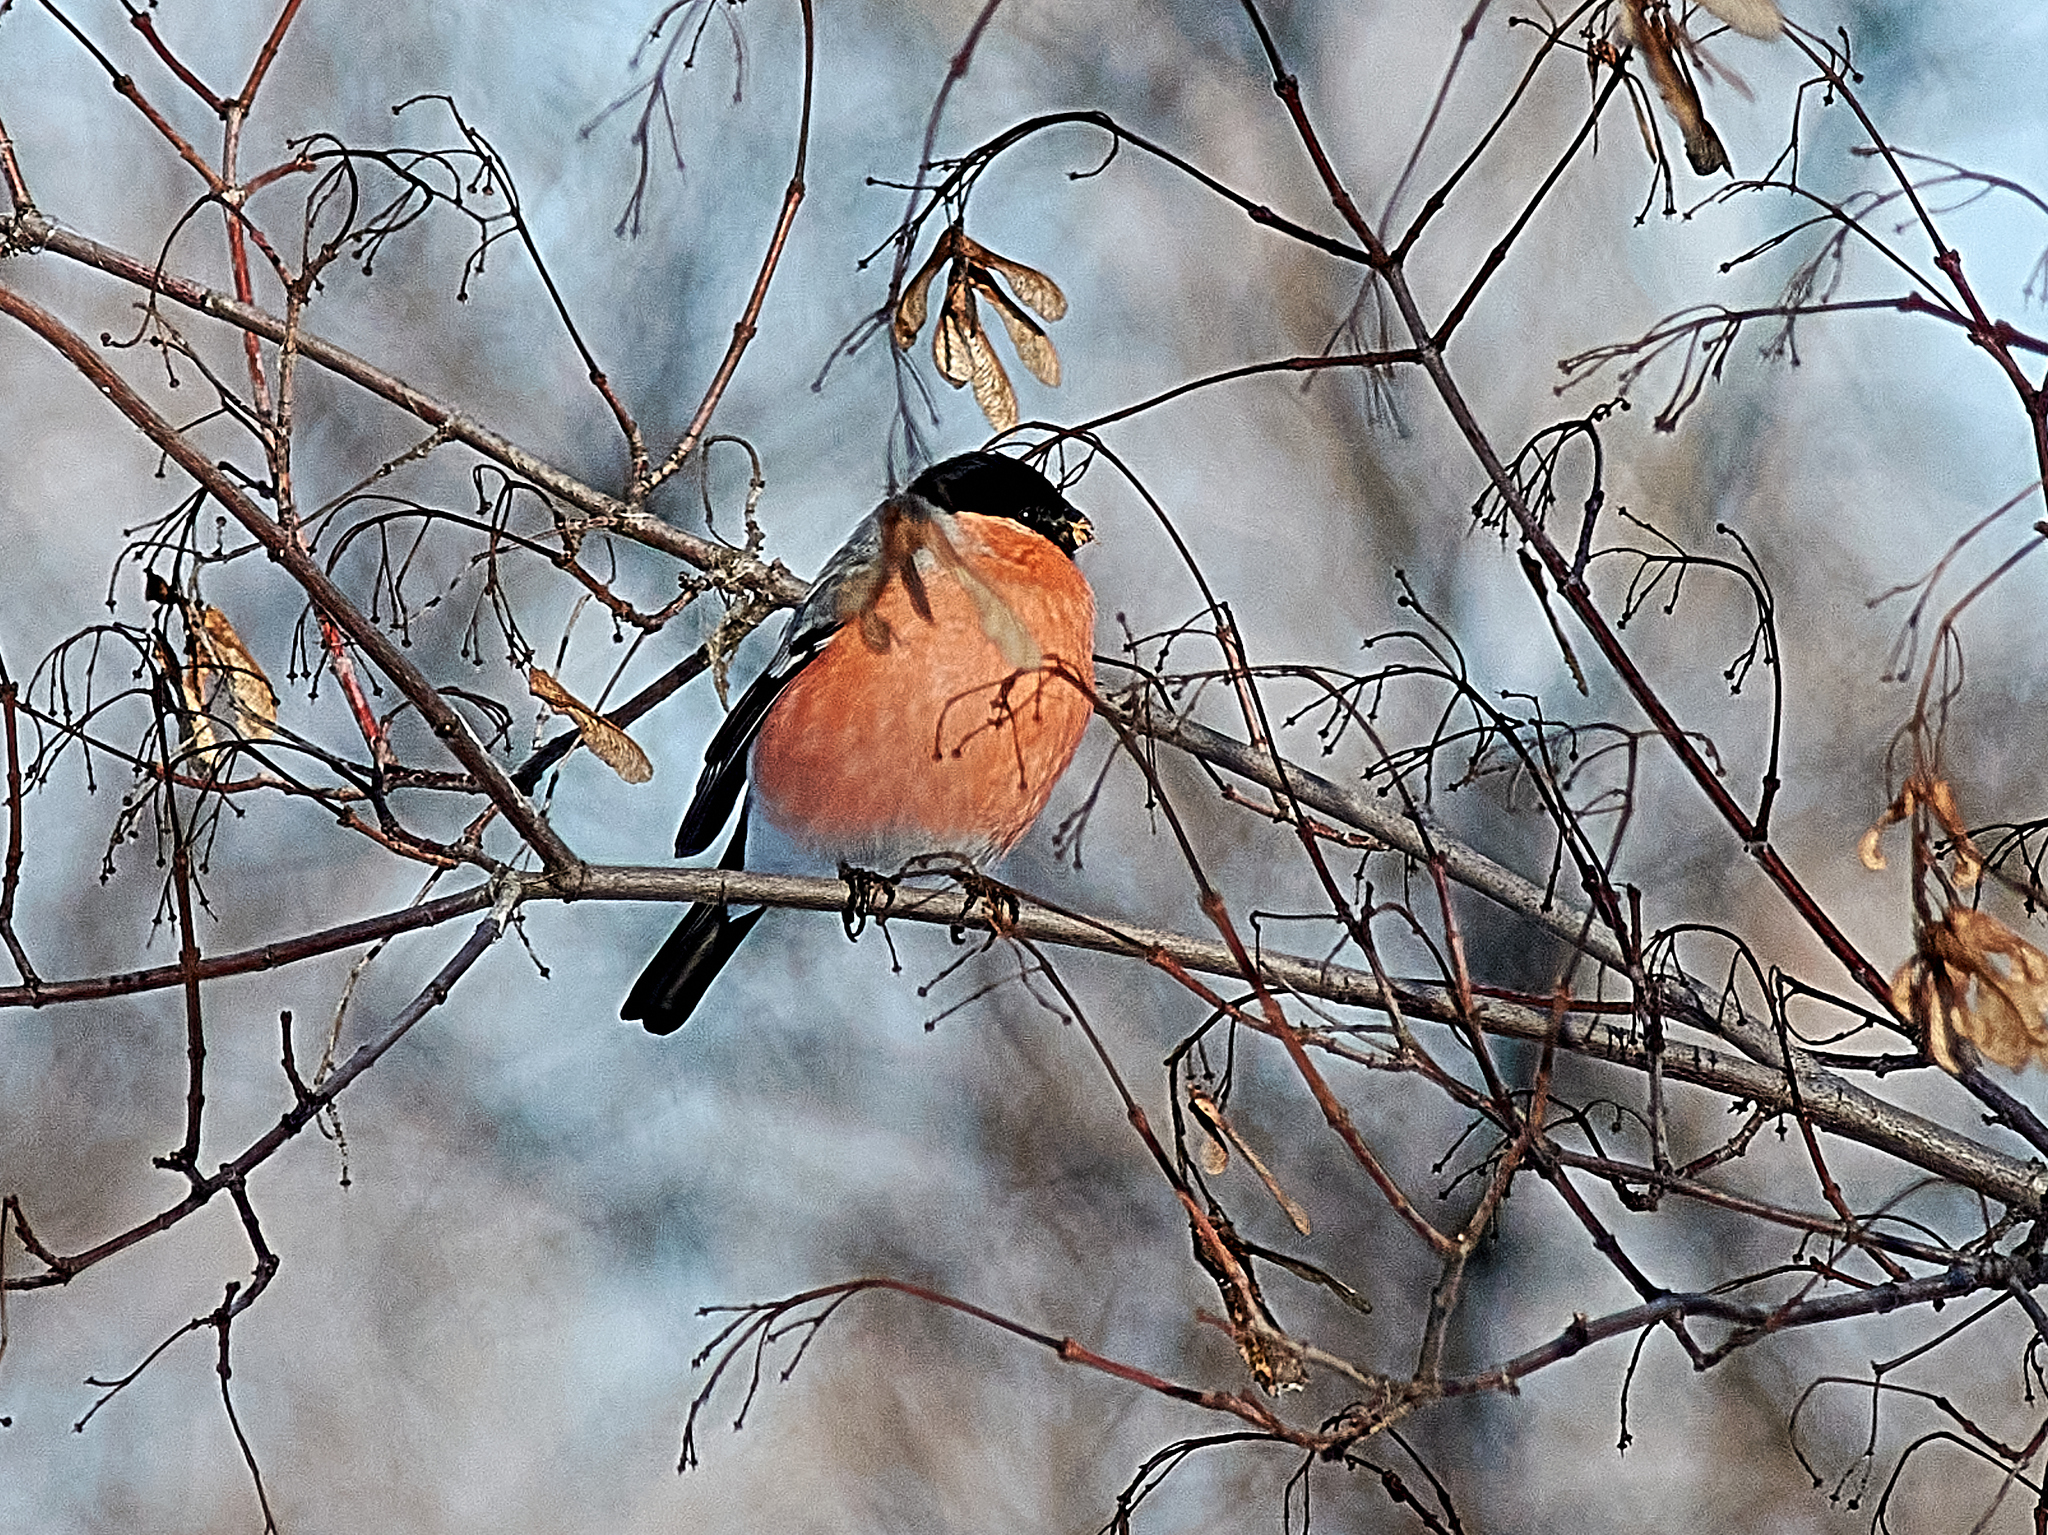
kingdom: Animalia
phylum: Chordata
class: Aves
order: Passeriformes
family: Fringillidae
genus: Pyrrhula
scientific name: Pyrrhula pyrrhula
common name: Eurasian bullfinch
